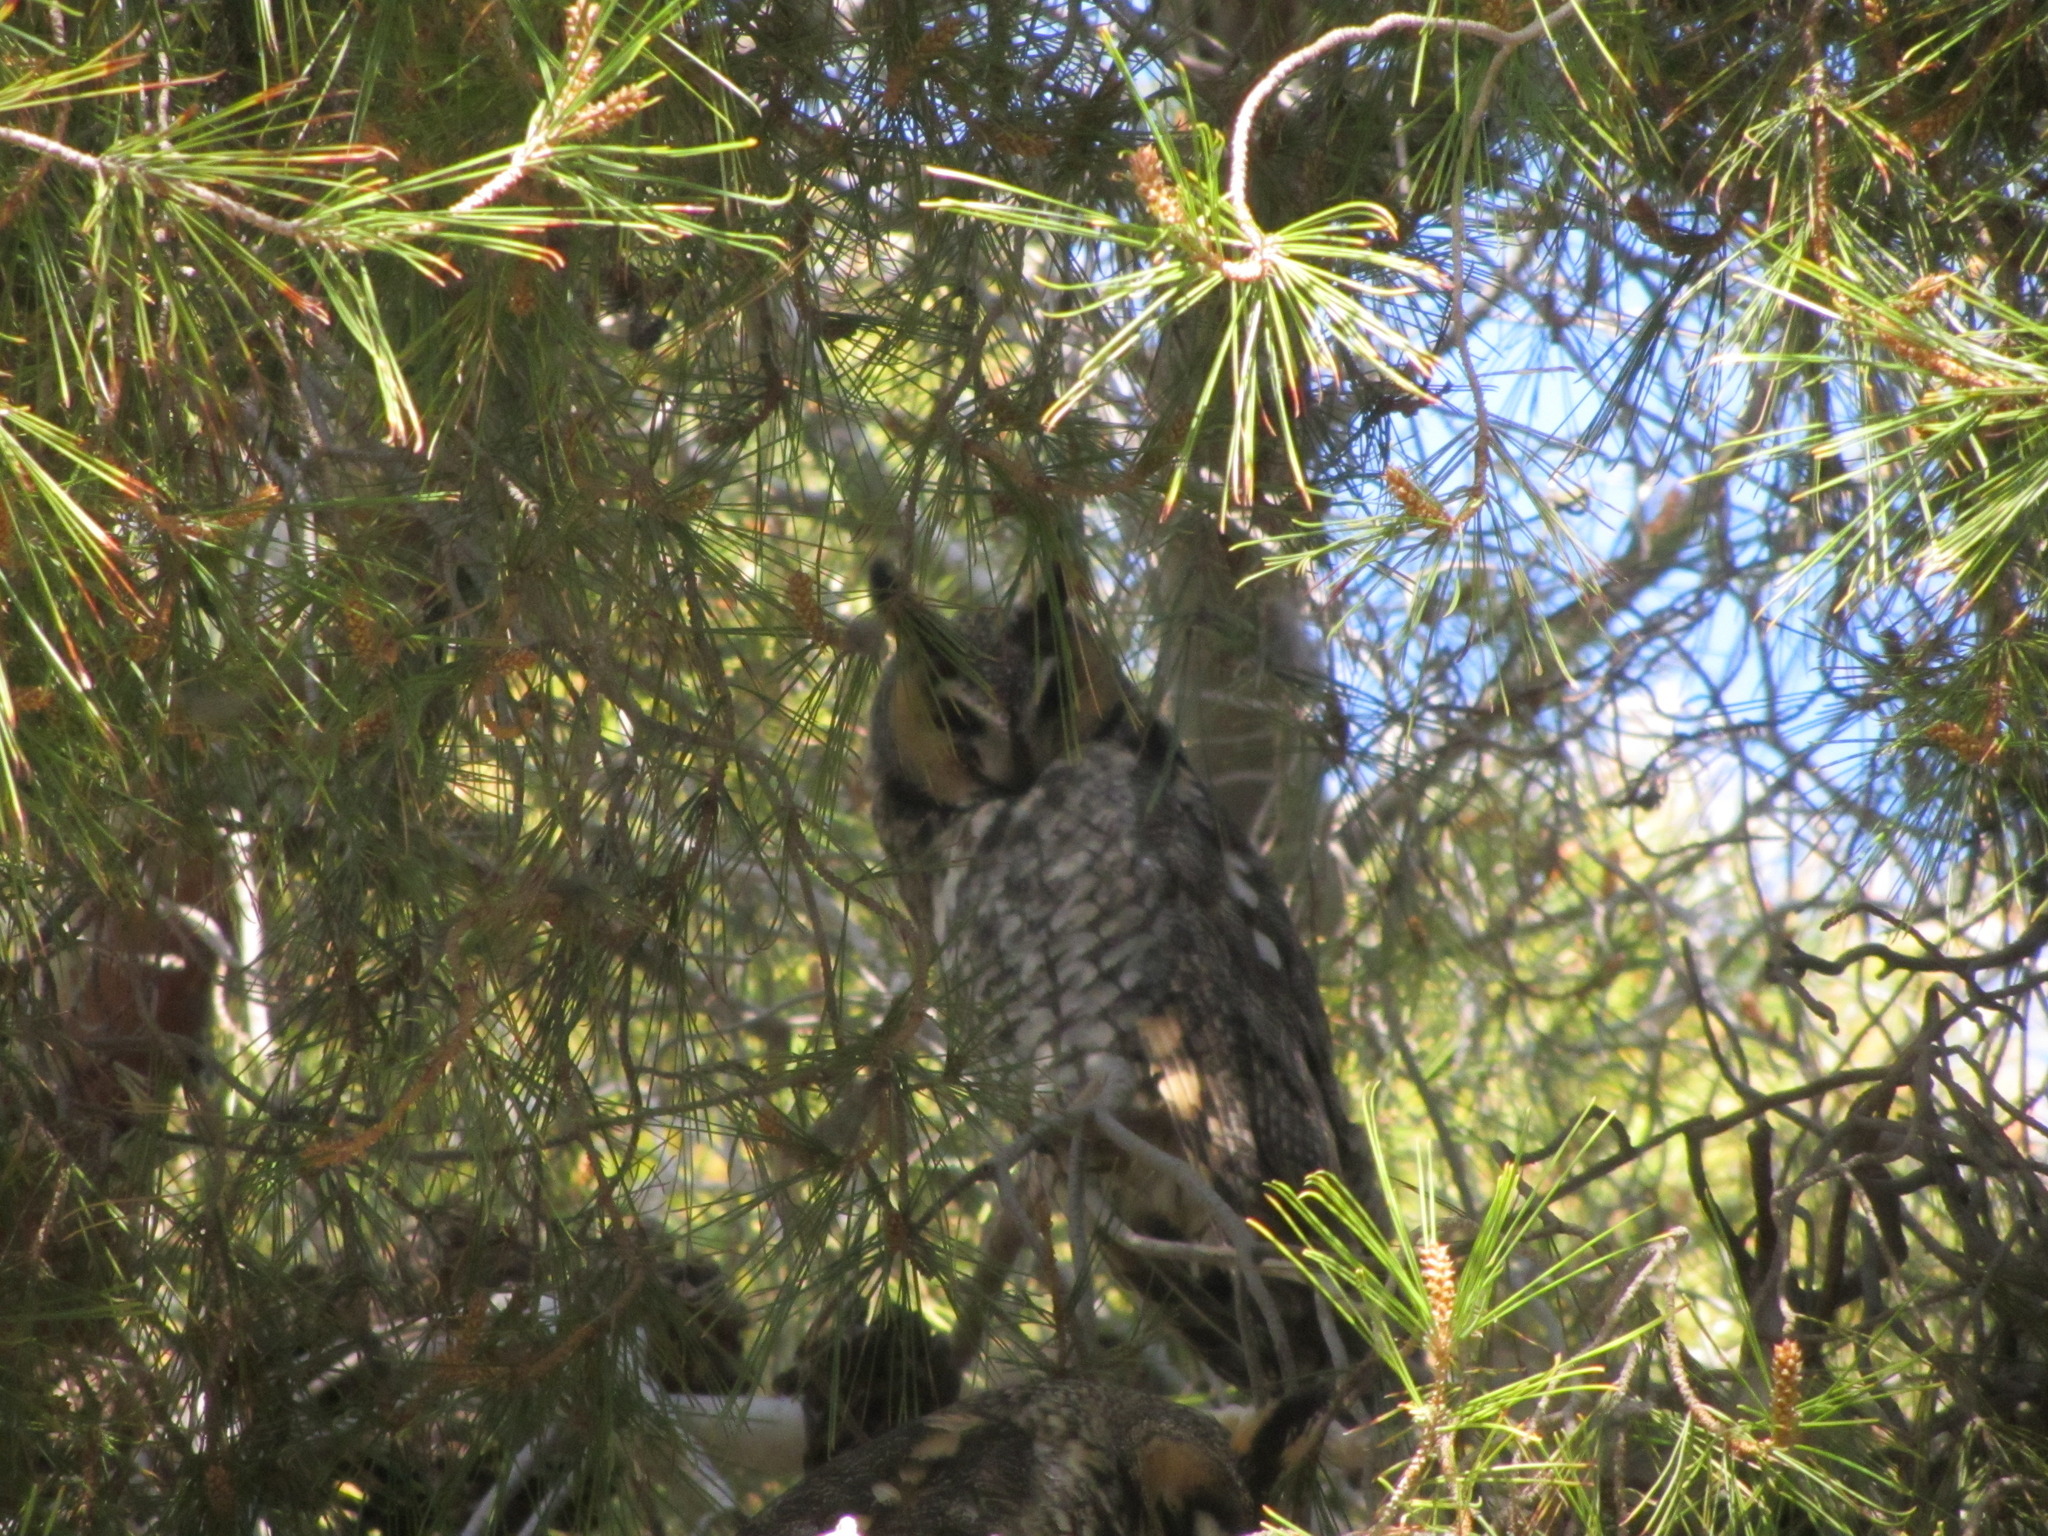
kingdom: Animalia
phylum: Chordata
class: Aves
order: Strigiformes
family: Strigidae
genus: Asio
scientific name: Asio otus
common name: Long-eared owl
